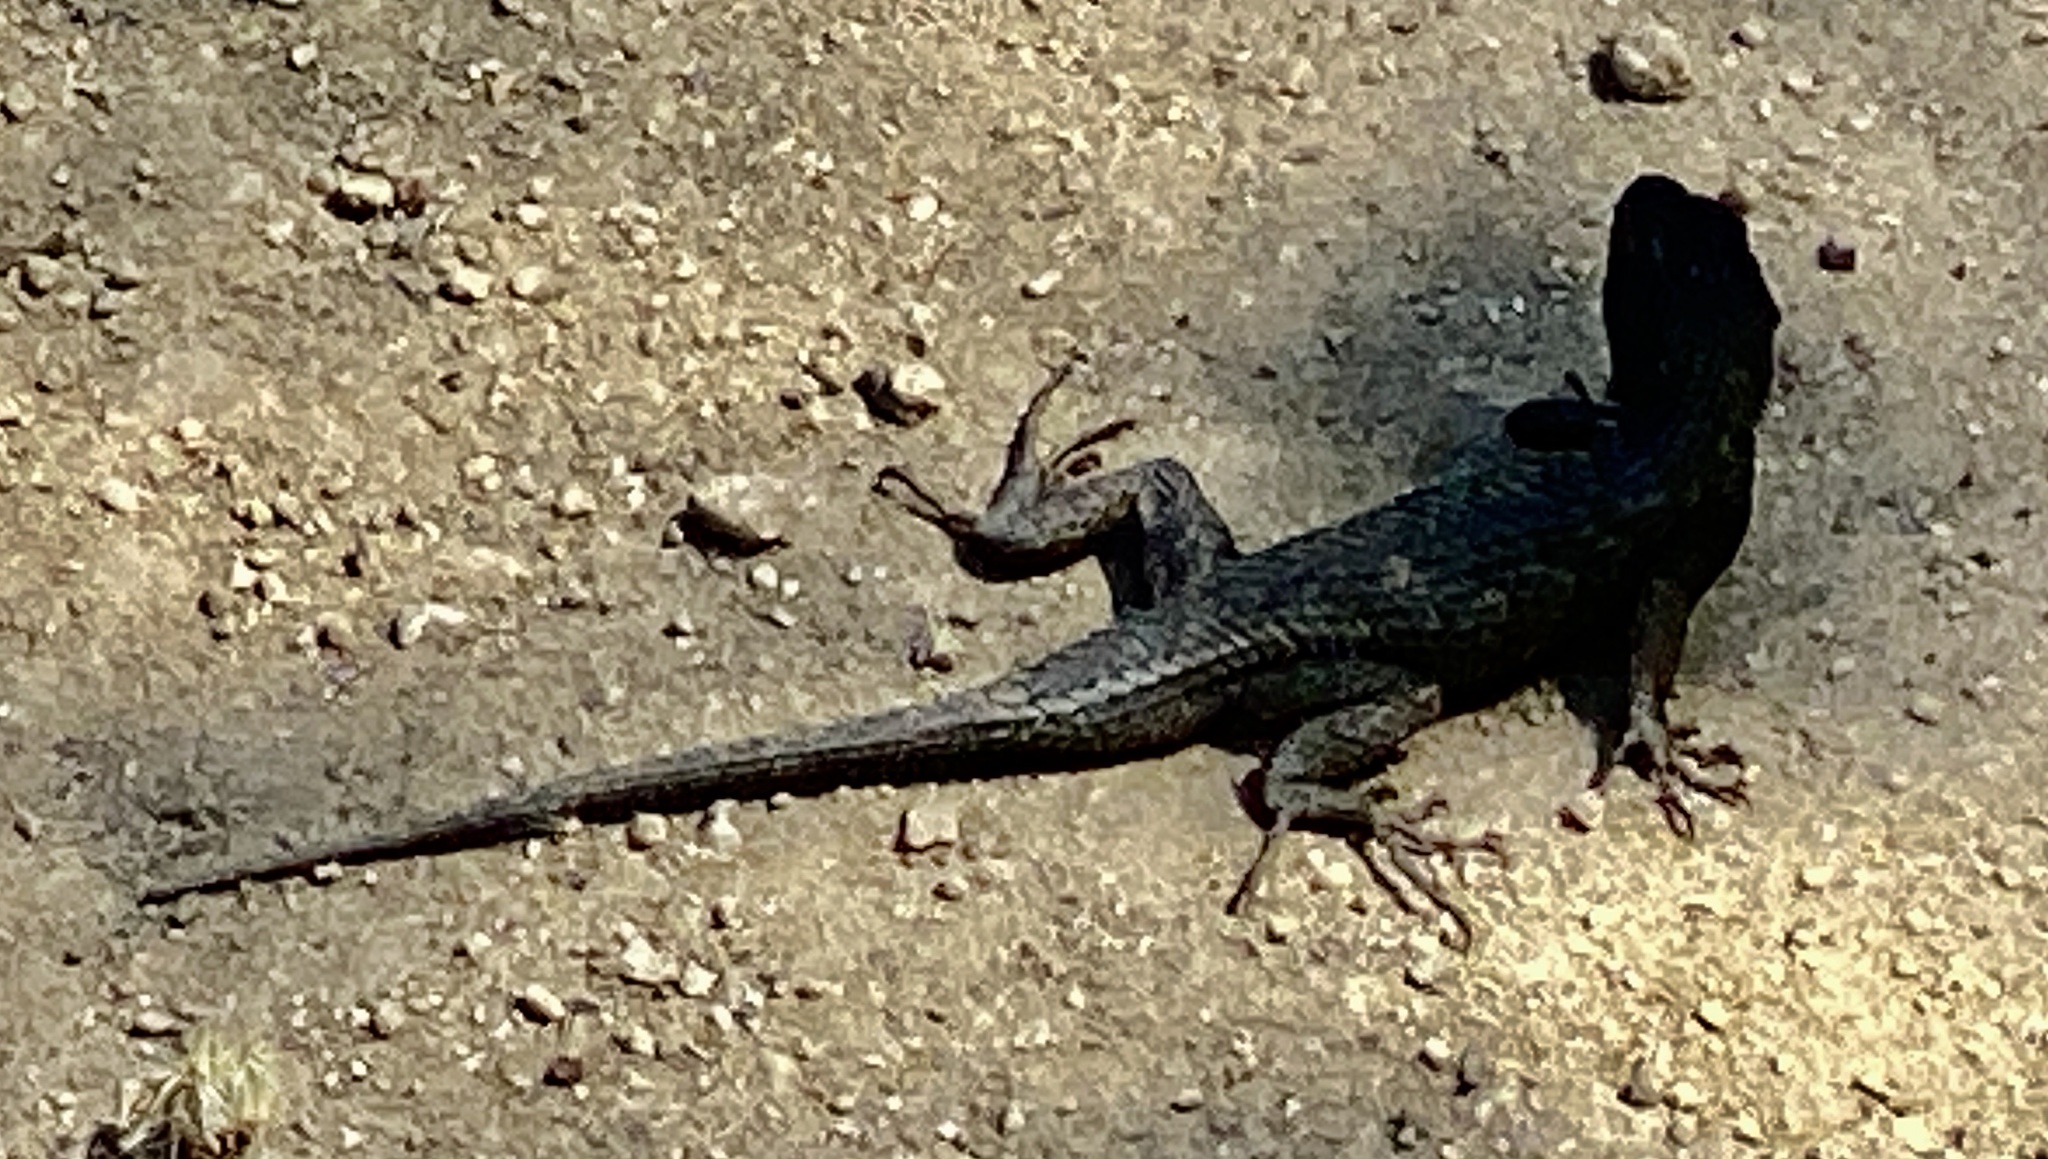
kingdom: Animalia
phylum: Chordata
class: Squamata
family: Phrynosomatidae
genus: Sceloporus
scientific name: Sceloporus occidentalis
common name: Western fence lizard
